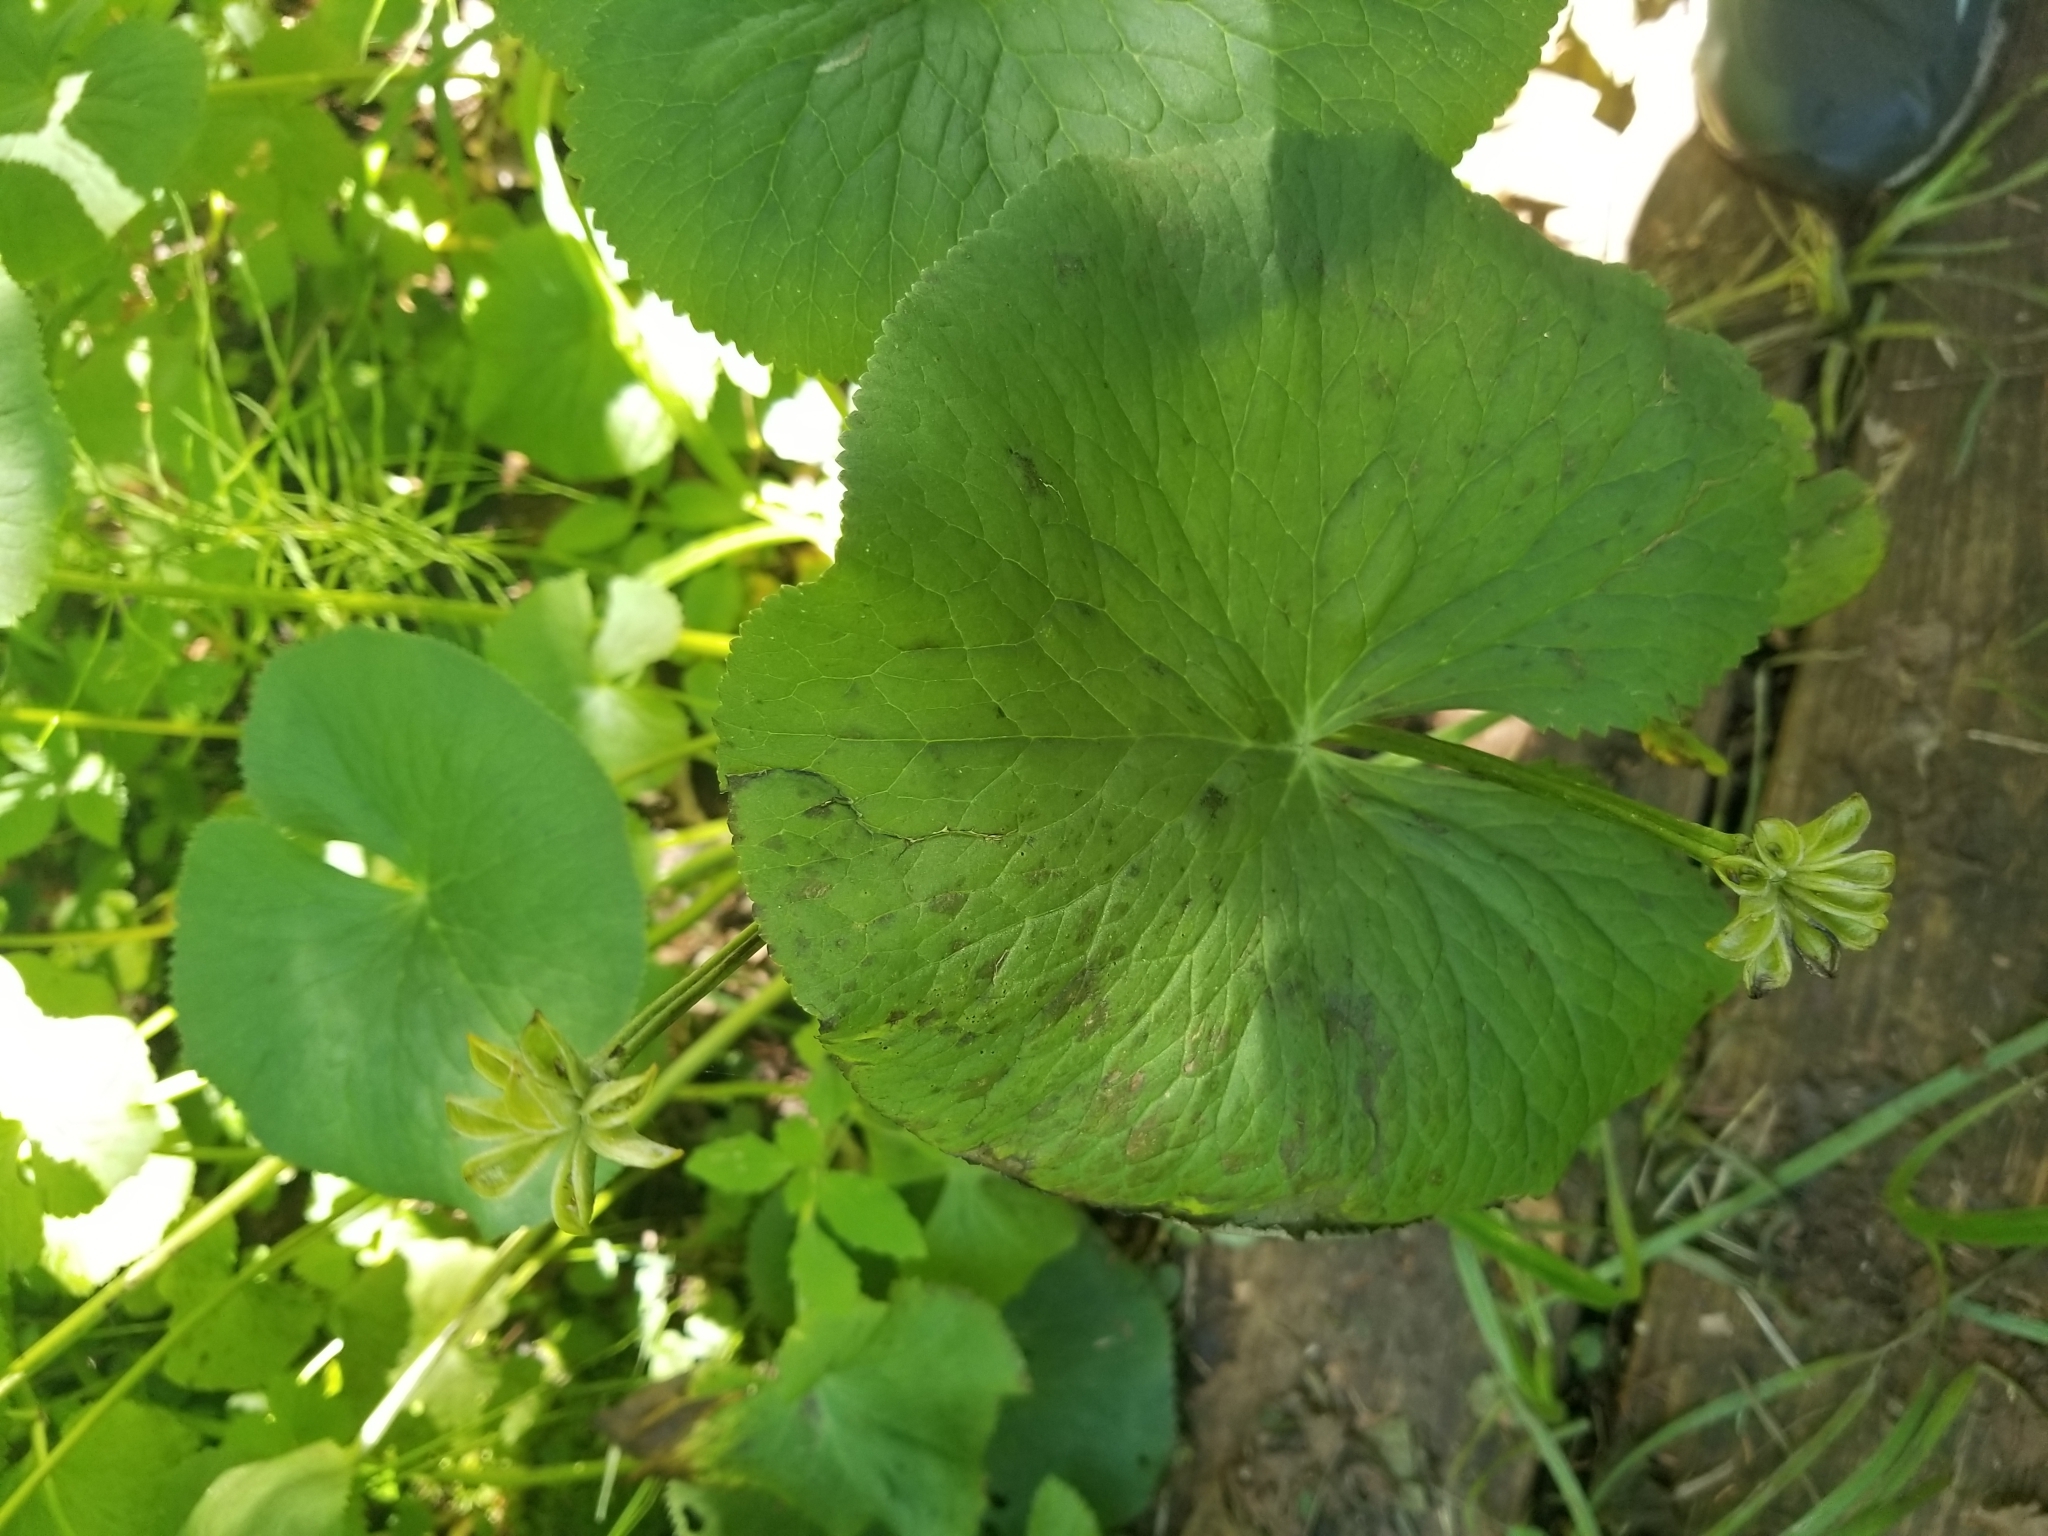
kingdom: Plantae
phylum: Tracheophyta
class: Magnoliopsida
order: Ranunculales
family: Ranunculaceae
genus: Caltha
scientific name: Caltha palustris
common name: Marsh marigold
